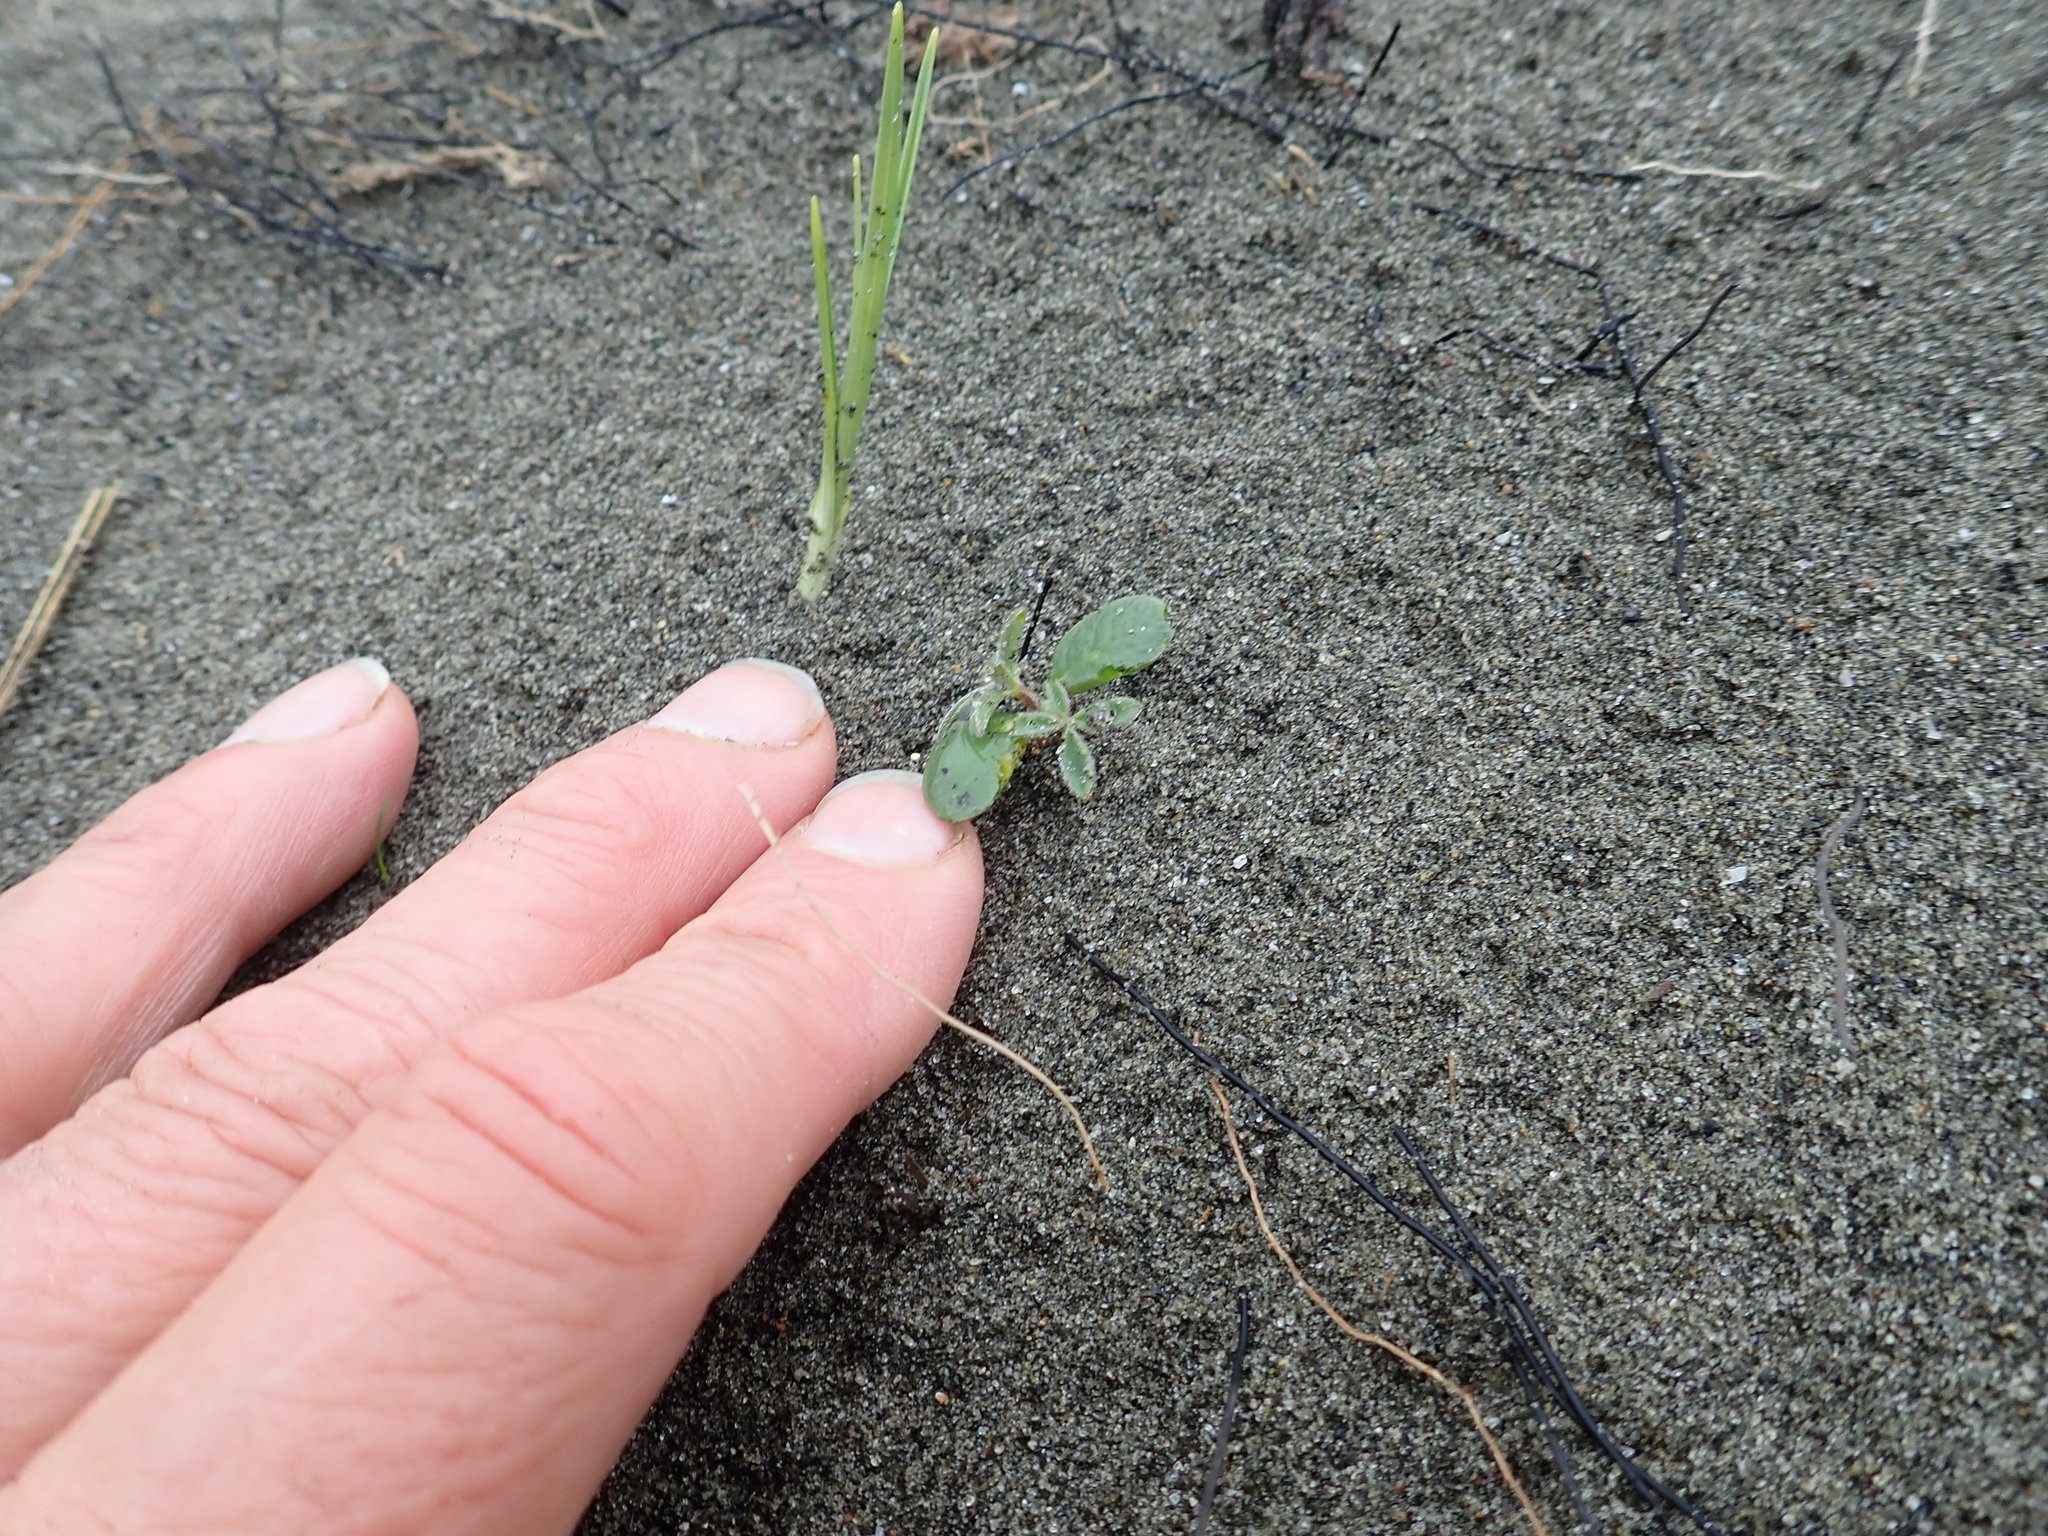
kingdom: Plantae
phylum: Tracheophyta
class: Magnoliopsida
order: Fabales
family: Fabaceae
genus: Lupinus
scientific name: Lupinus arboreus
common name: Yellow bush lupine
